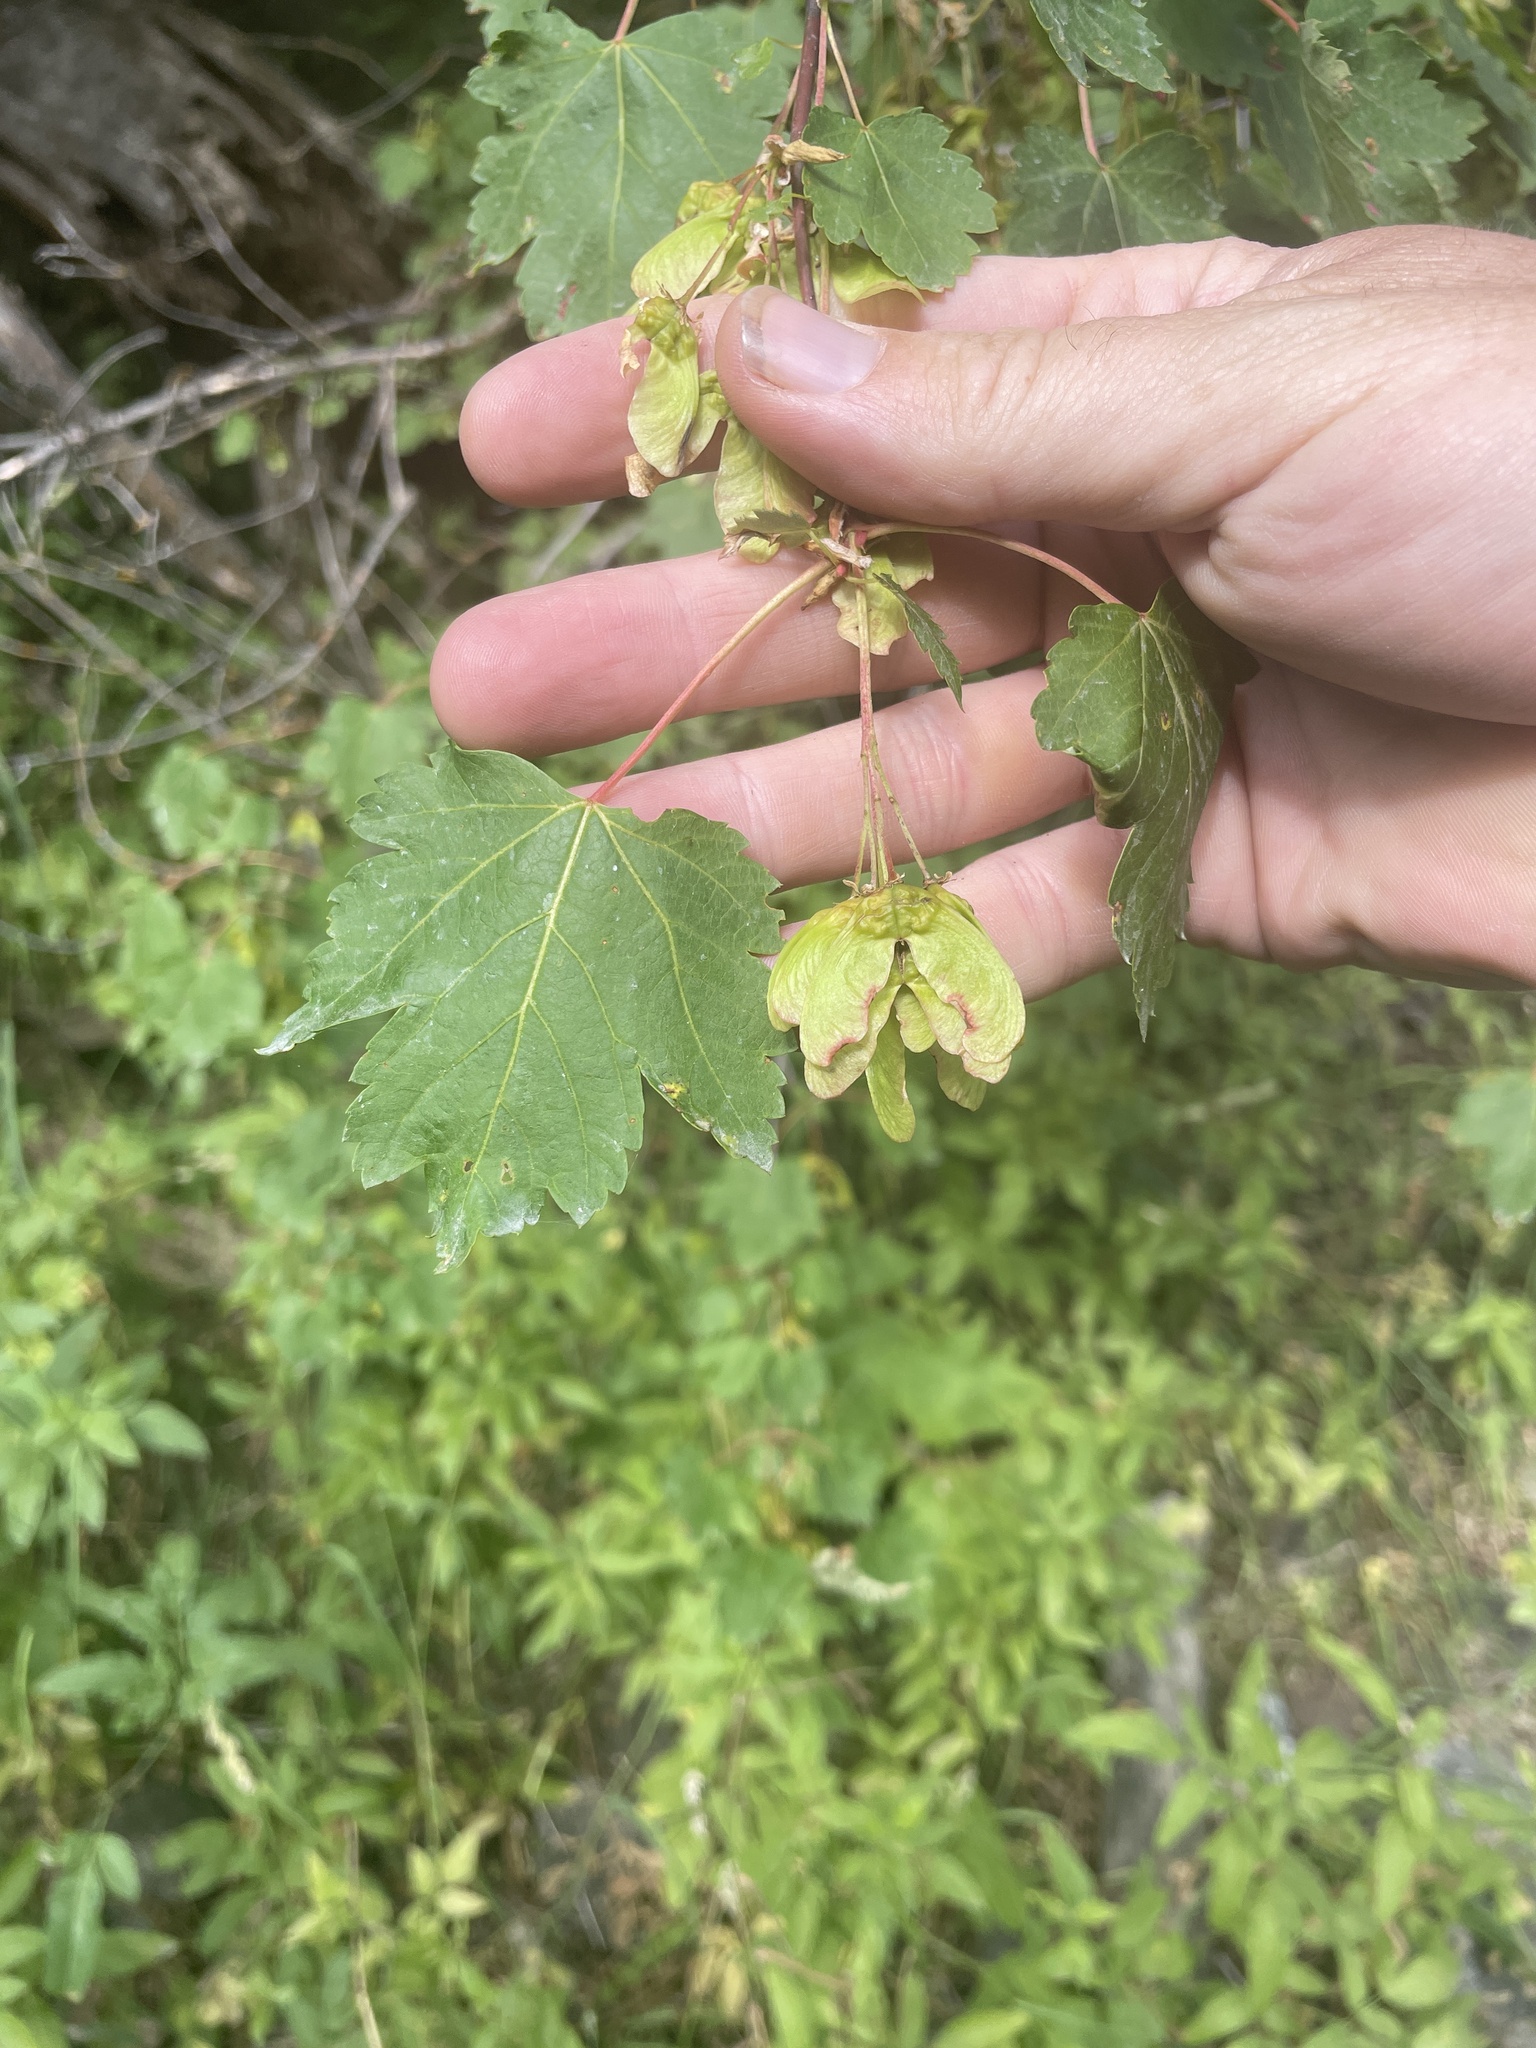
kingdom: Plantae
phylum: Tracheophyta
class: Magnoliopsida
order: Sapindales
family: Sapindaceae
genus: Acer
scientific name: Acer glabrum
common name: Rocky mountain maple
